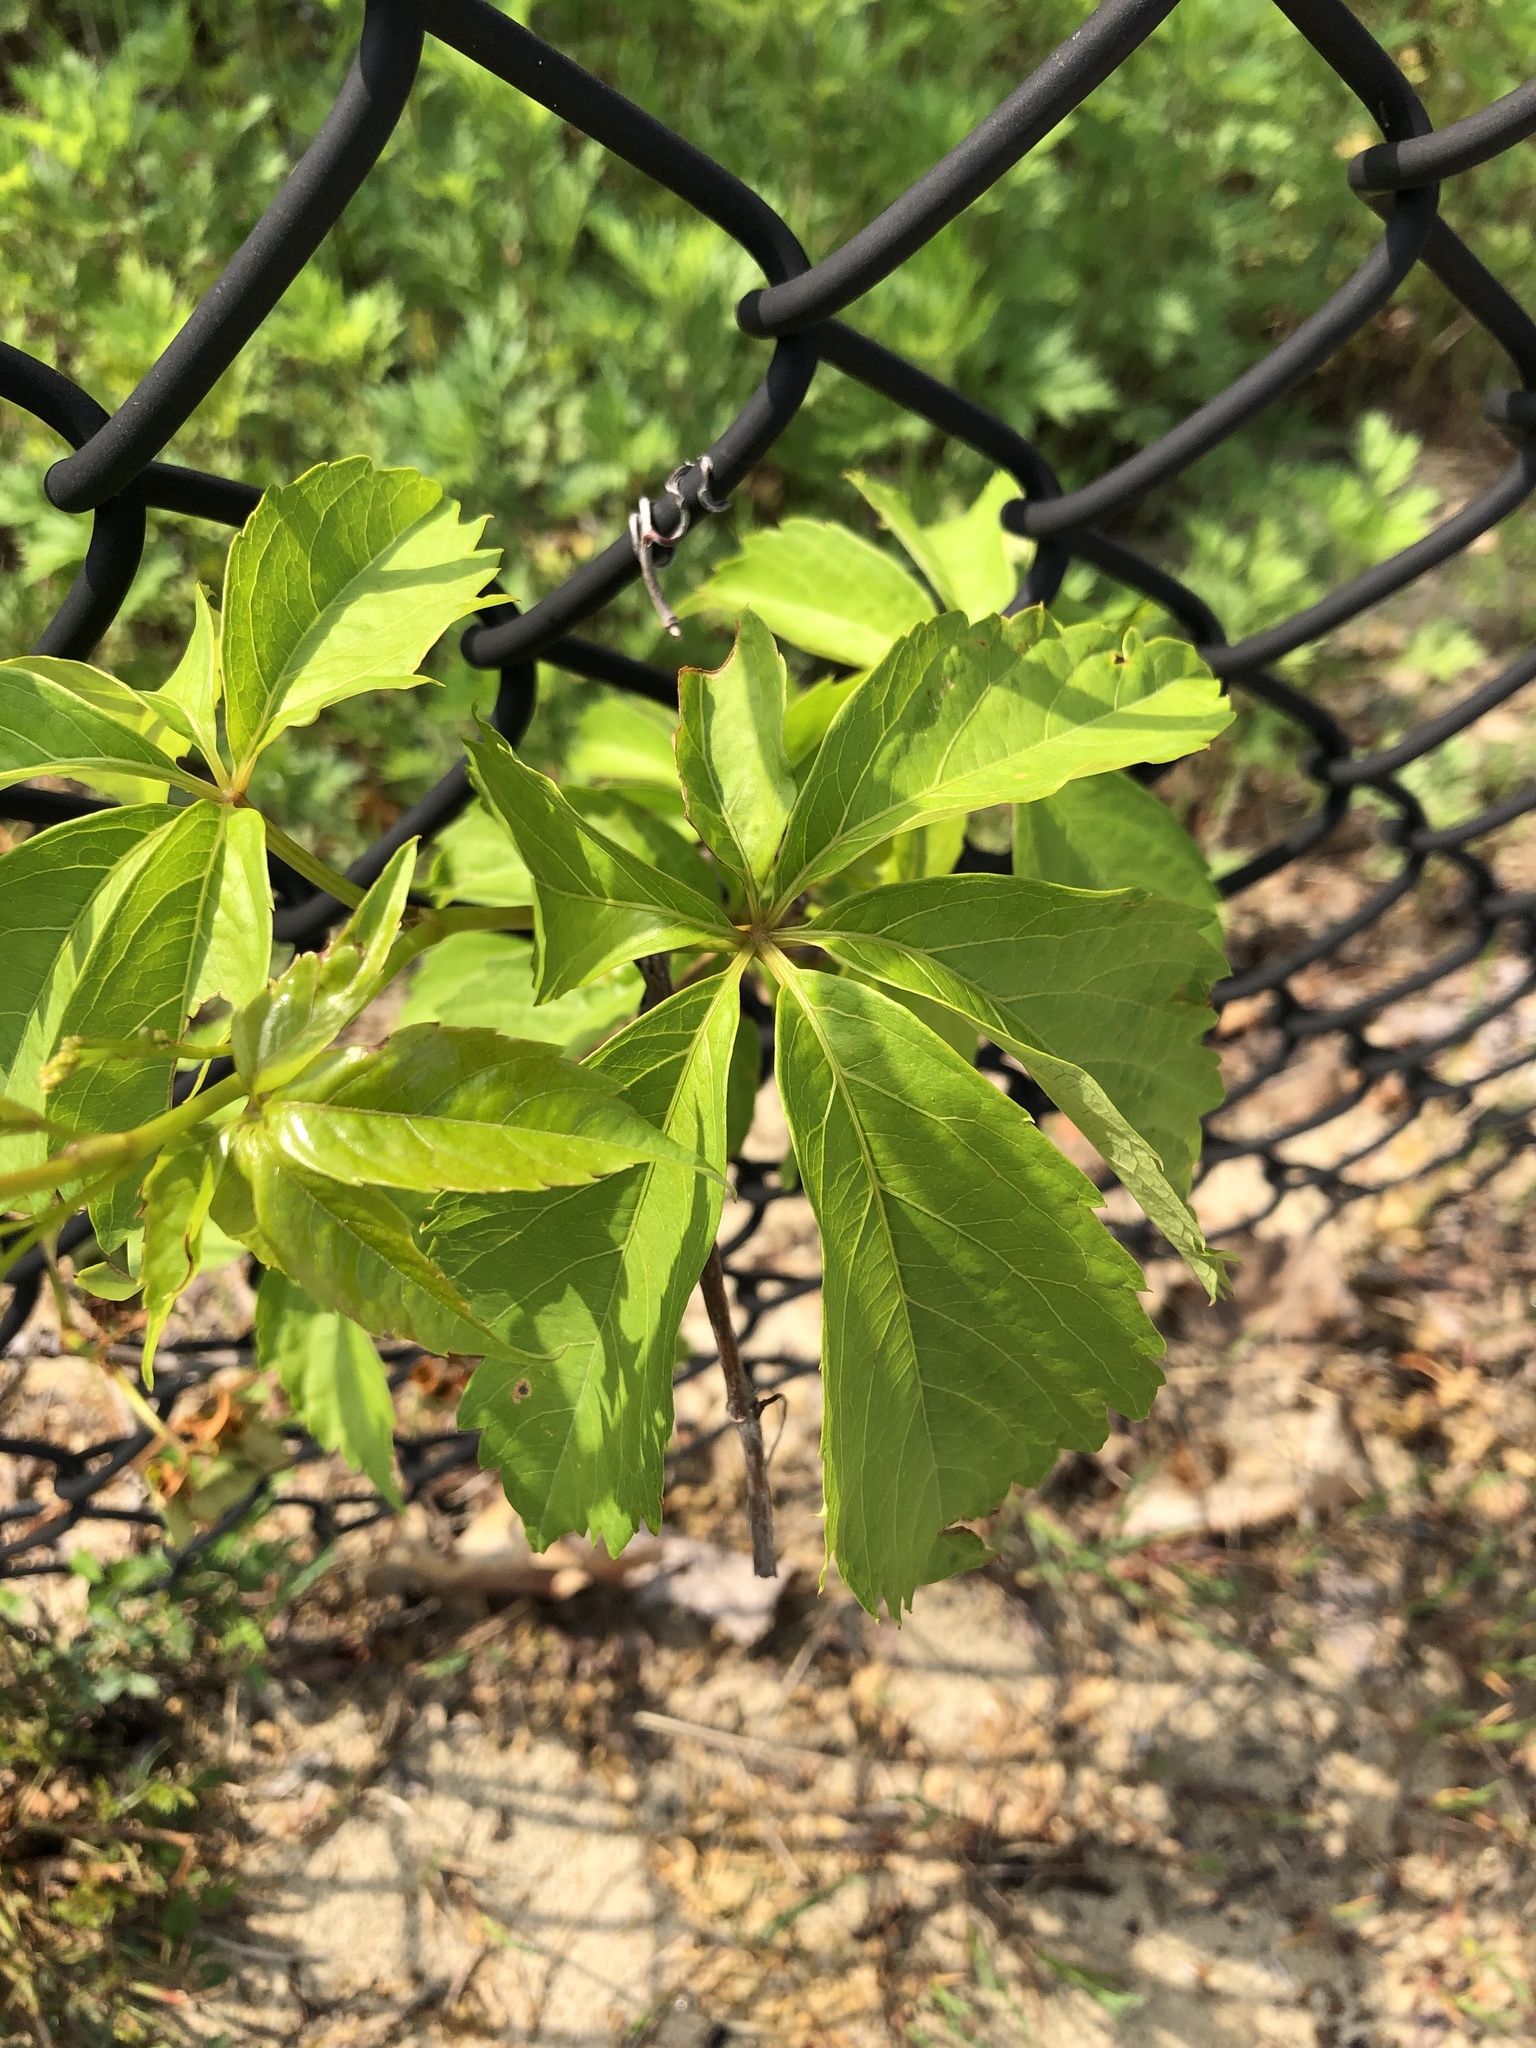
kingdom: Plantae
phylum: Tracheophyta
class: Magnoliopsida
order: Vitales
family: Vitaceae
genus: Parthenocissus
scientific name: Parthenocissus quinquefolia
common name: Virginia-creeper
